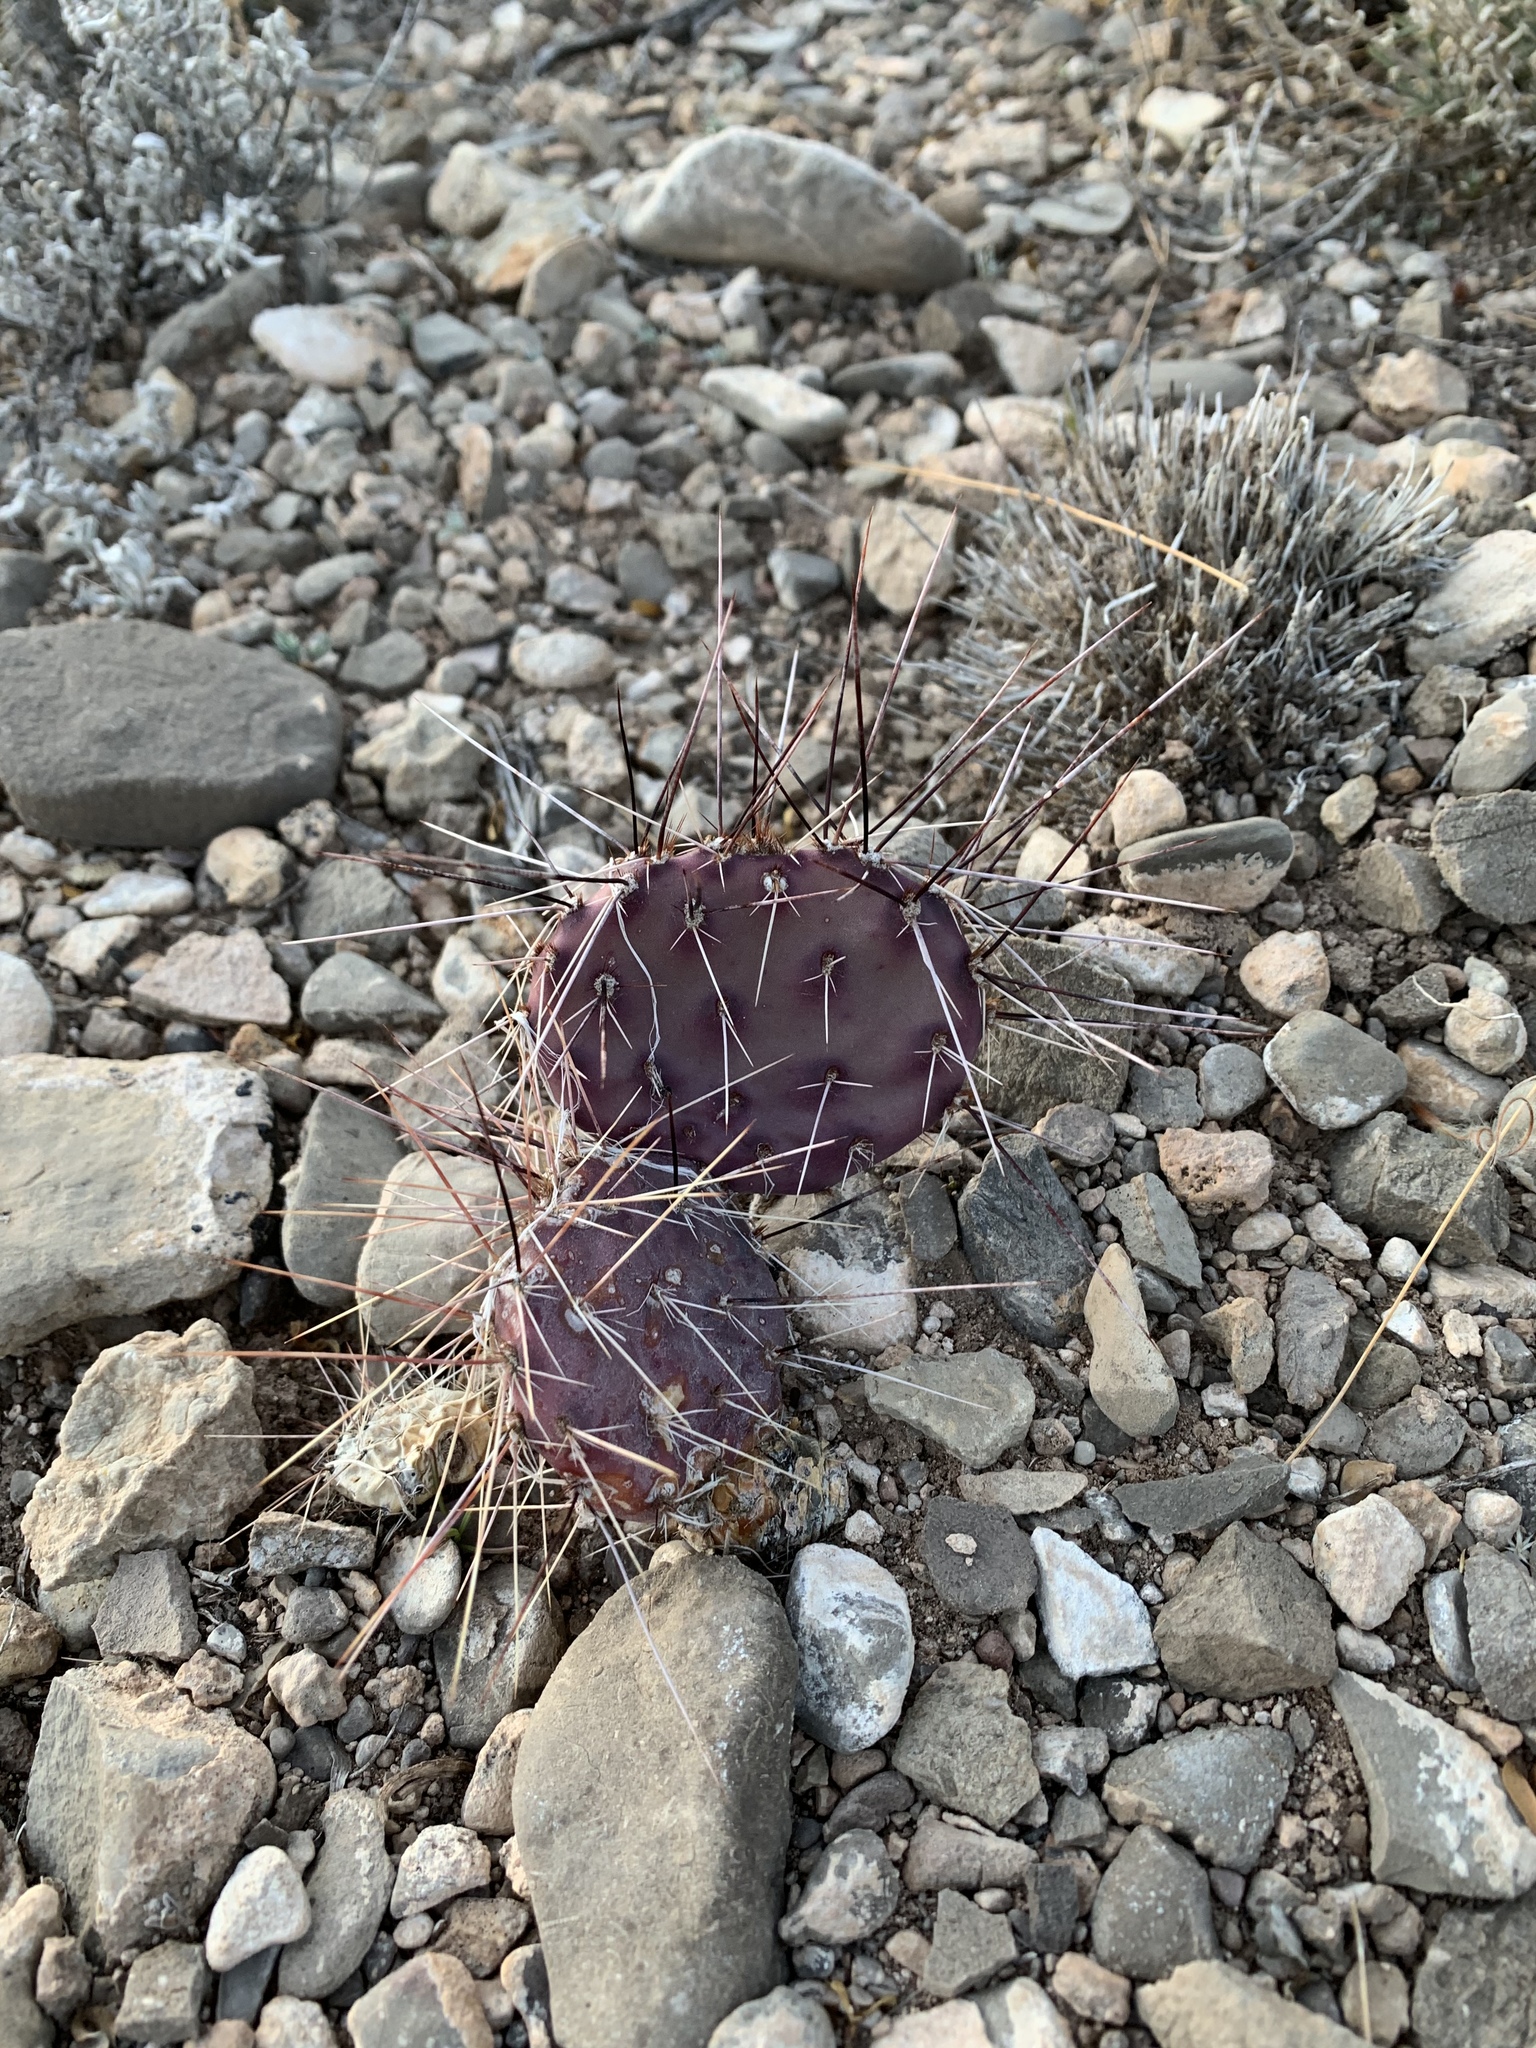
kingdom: Plantae
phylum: Tracheophyta
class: Magnoliopsida
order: Caryophyllales
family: Cactaceae
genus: Opuntia
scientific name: Opuntia macrocentra
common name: Purple prickly-pear
